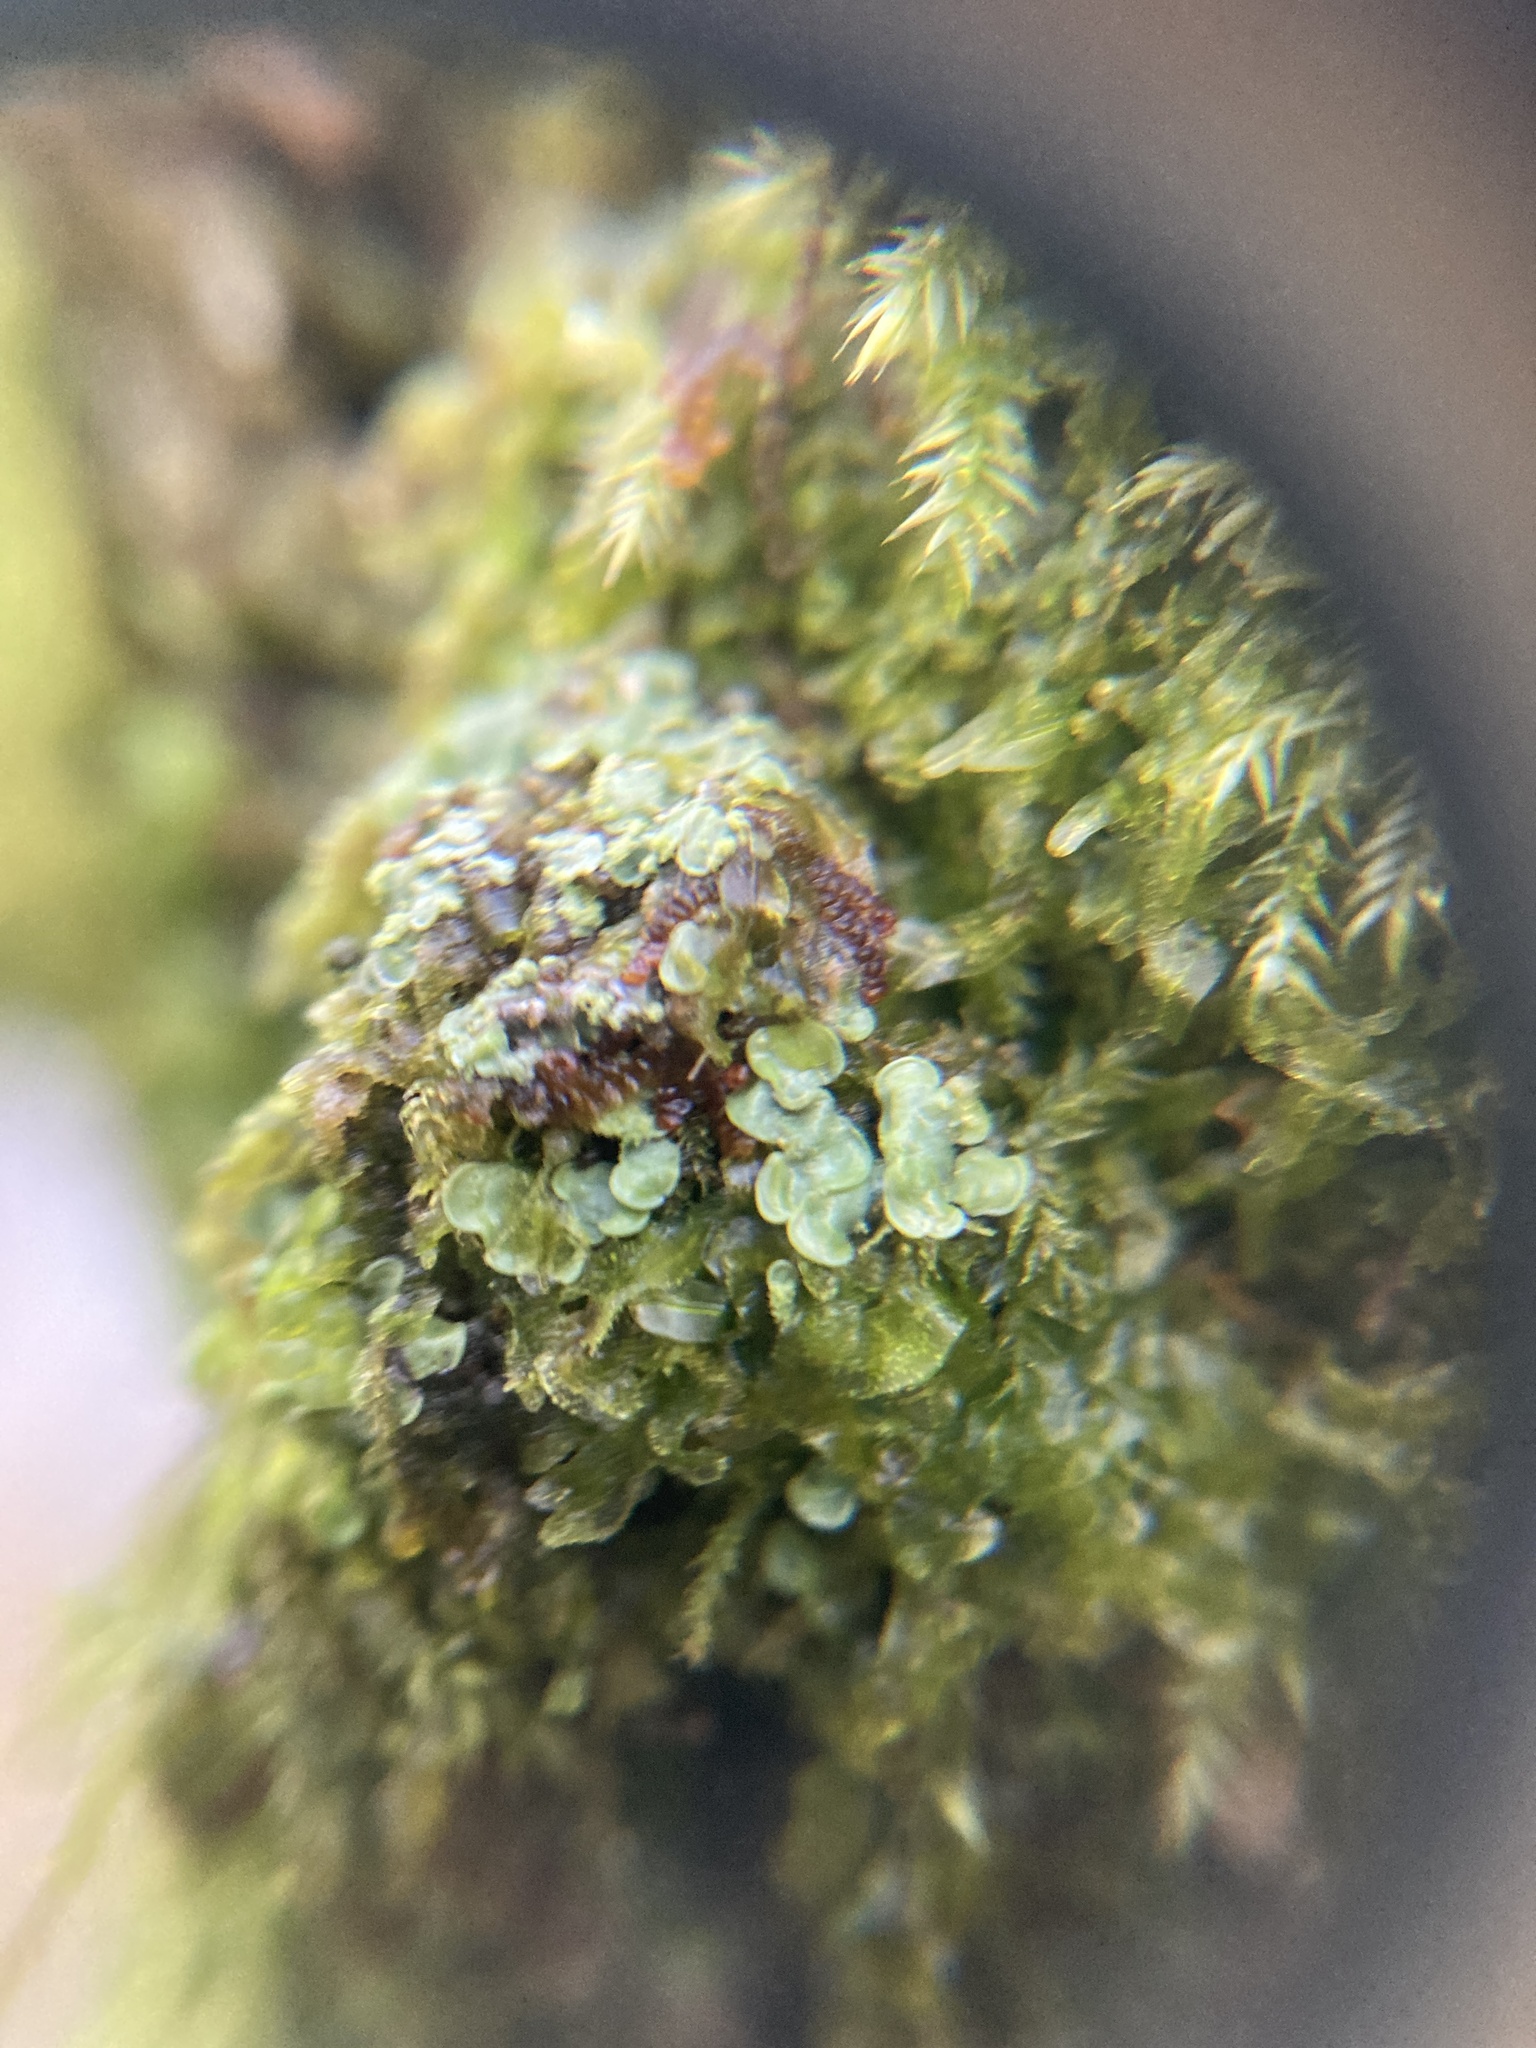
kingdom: Fungi
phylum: Ascomycota
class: Eurotiomycetes
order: Verrucariales
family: Verrucariaceae
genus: Normandina
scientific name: Normandina pulchella
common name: Elf ears lichen
